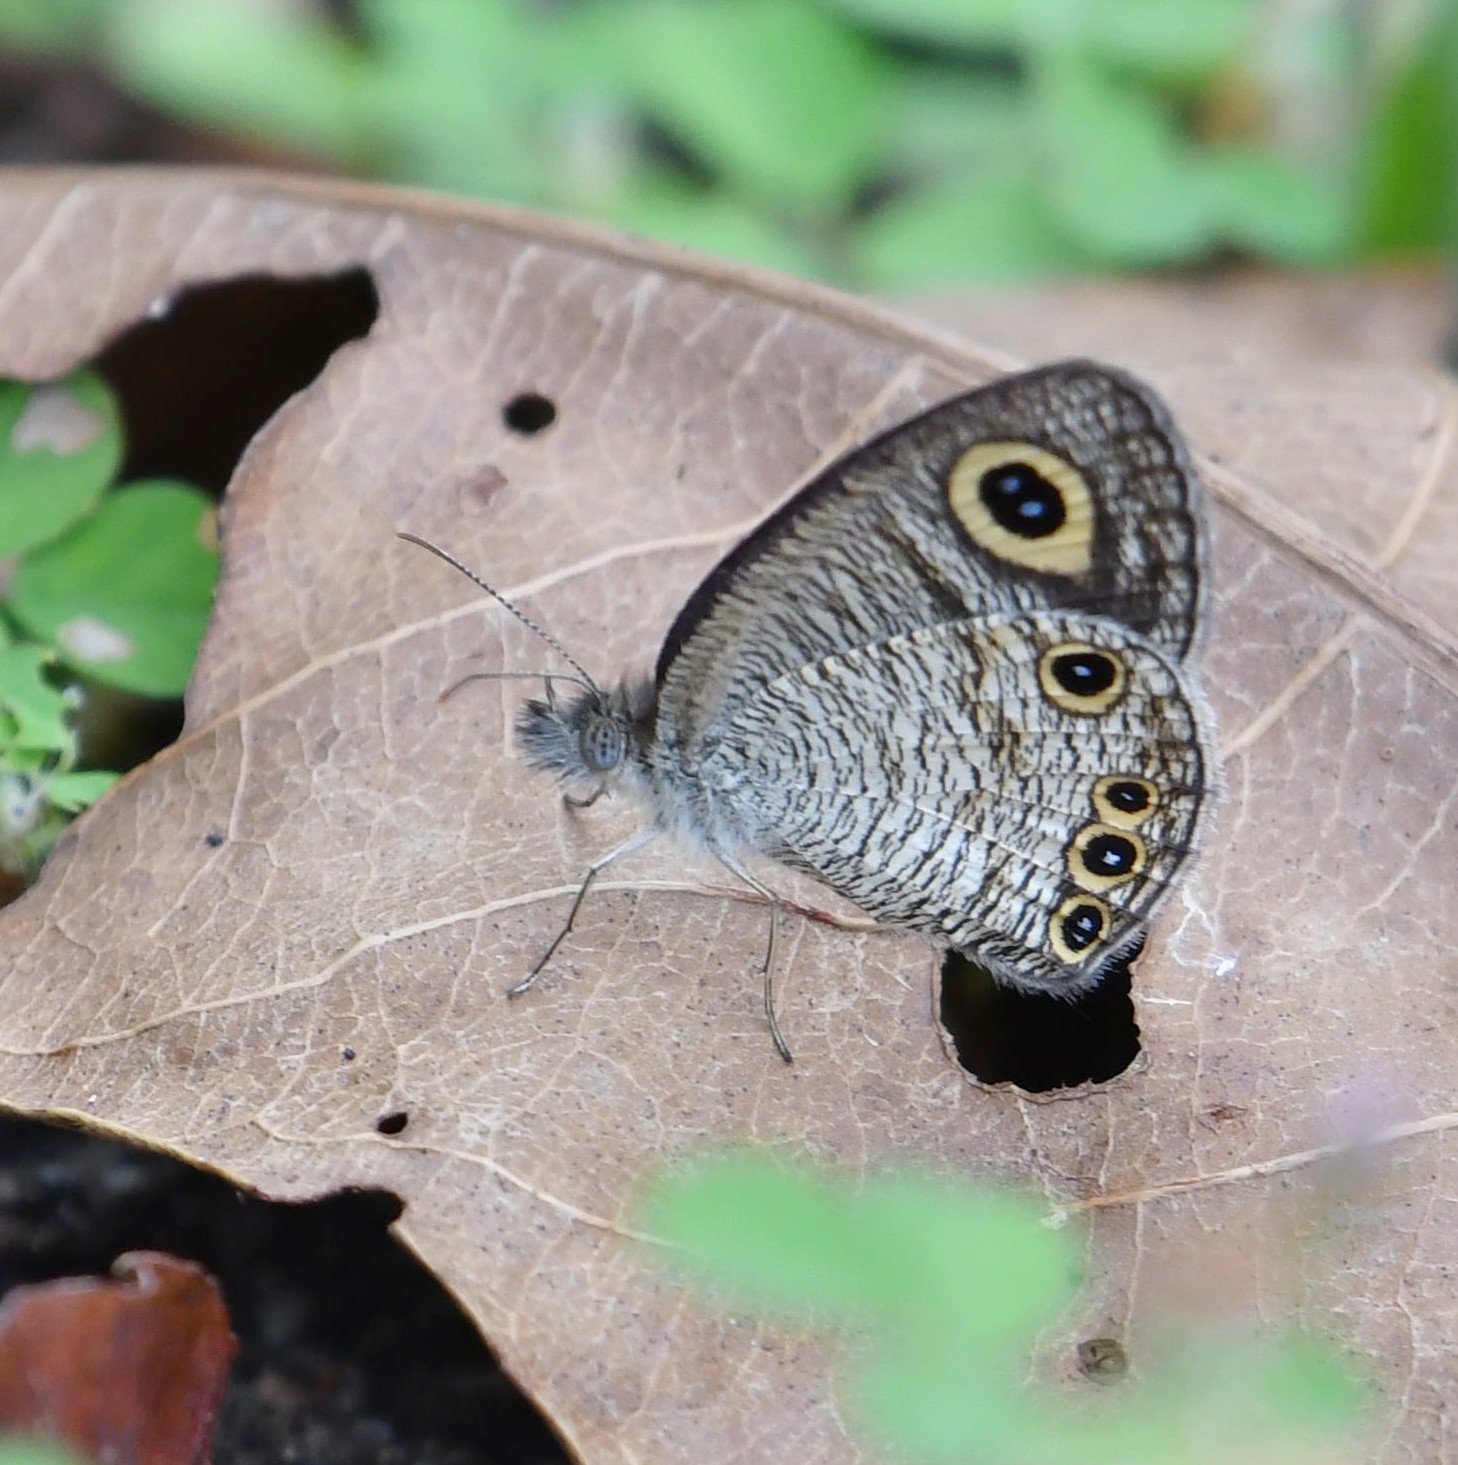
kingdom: Animalia
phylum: Arthropoda
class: Insecta
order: Lepidoptera
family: Nymphalidae
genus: Ypthima
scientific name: Ypthima huebneri
